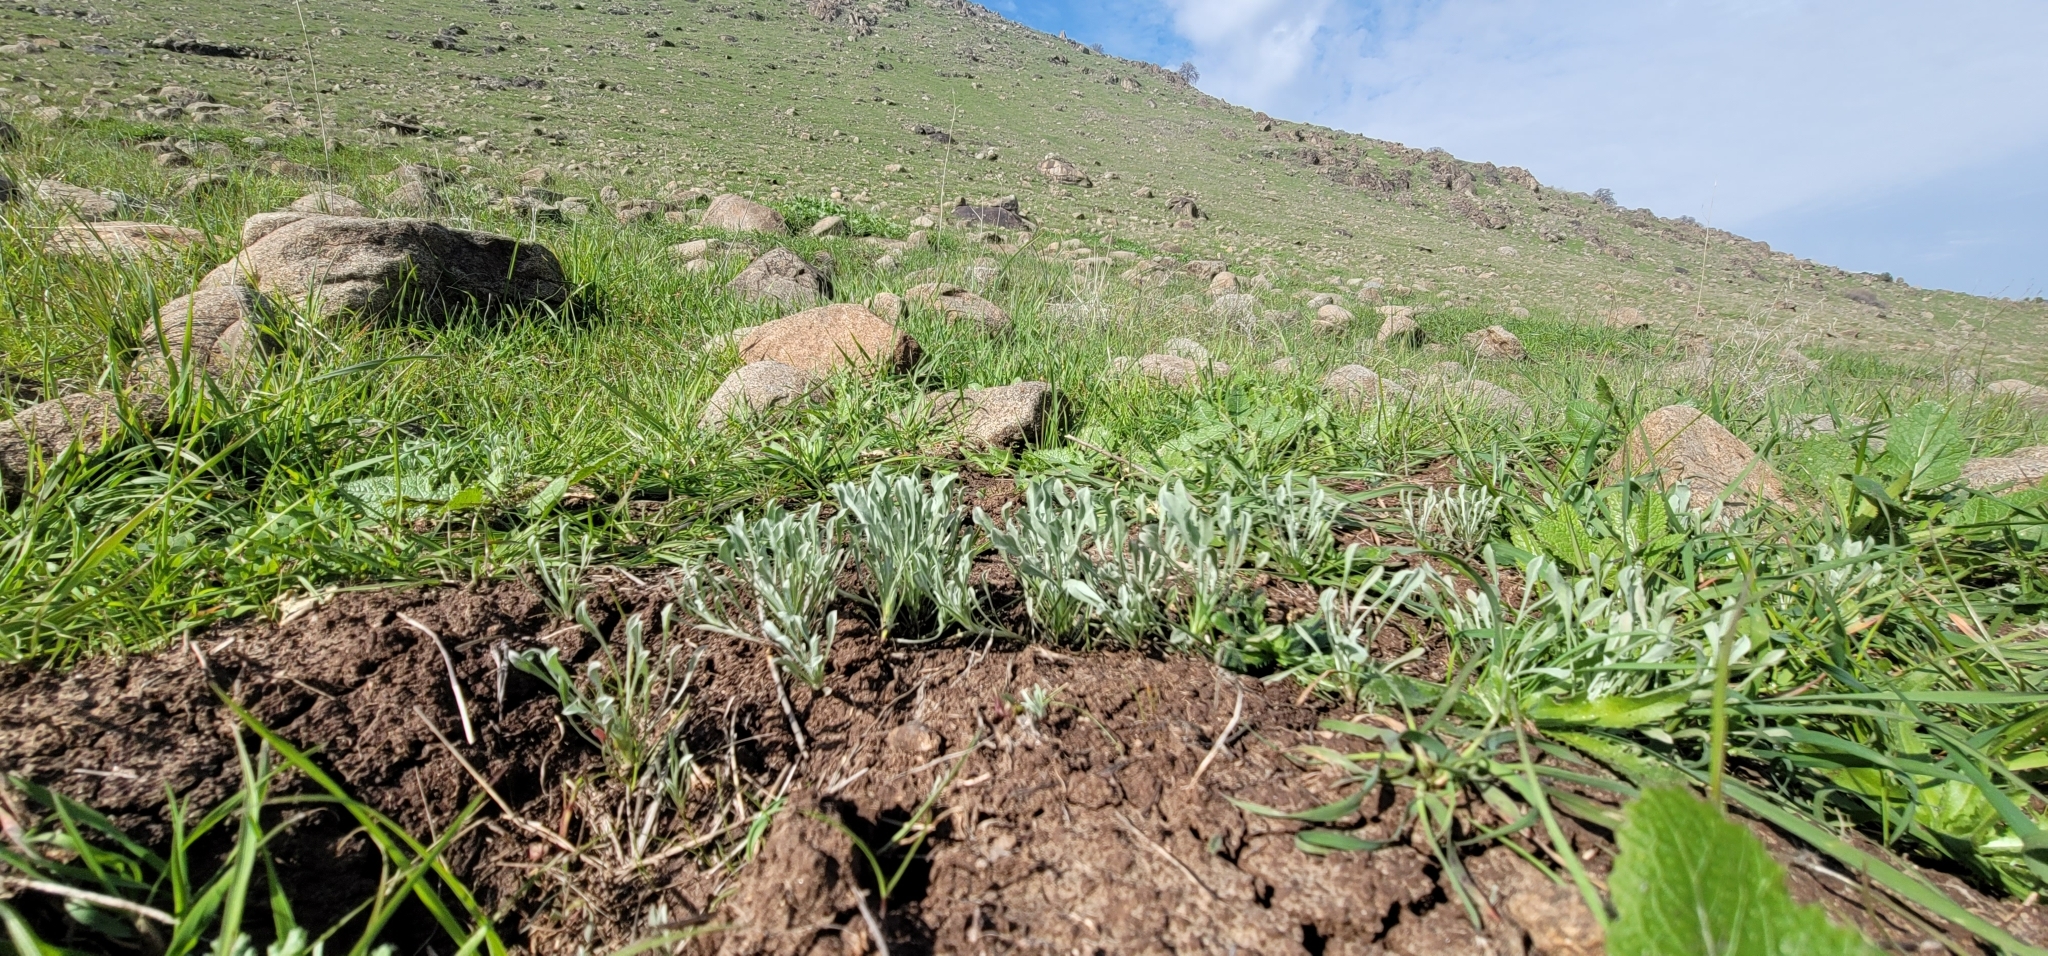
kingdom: Plantae
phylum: Tracheophyta
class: Magnoliopsida
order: Asterales
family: Asteraceae
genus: Hesperevax
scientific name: Hesperevax caulescens
